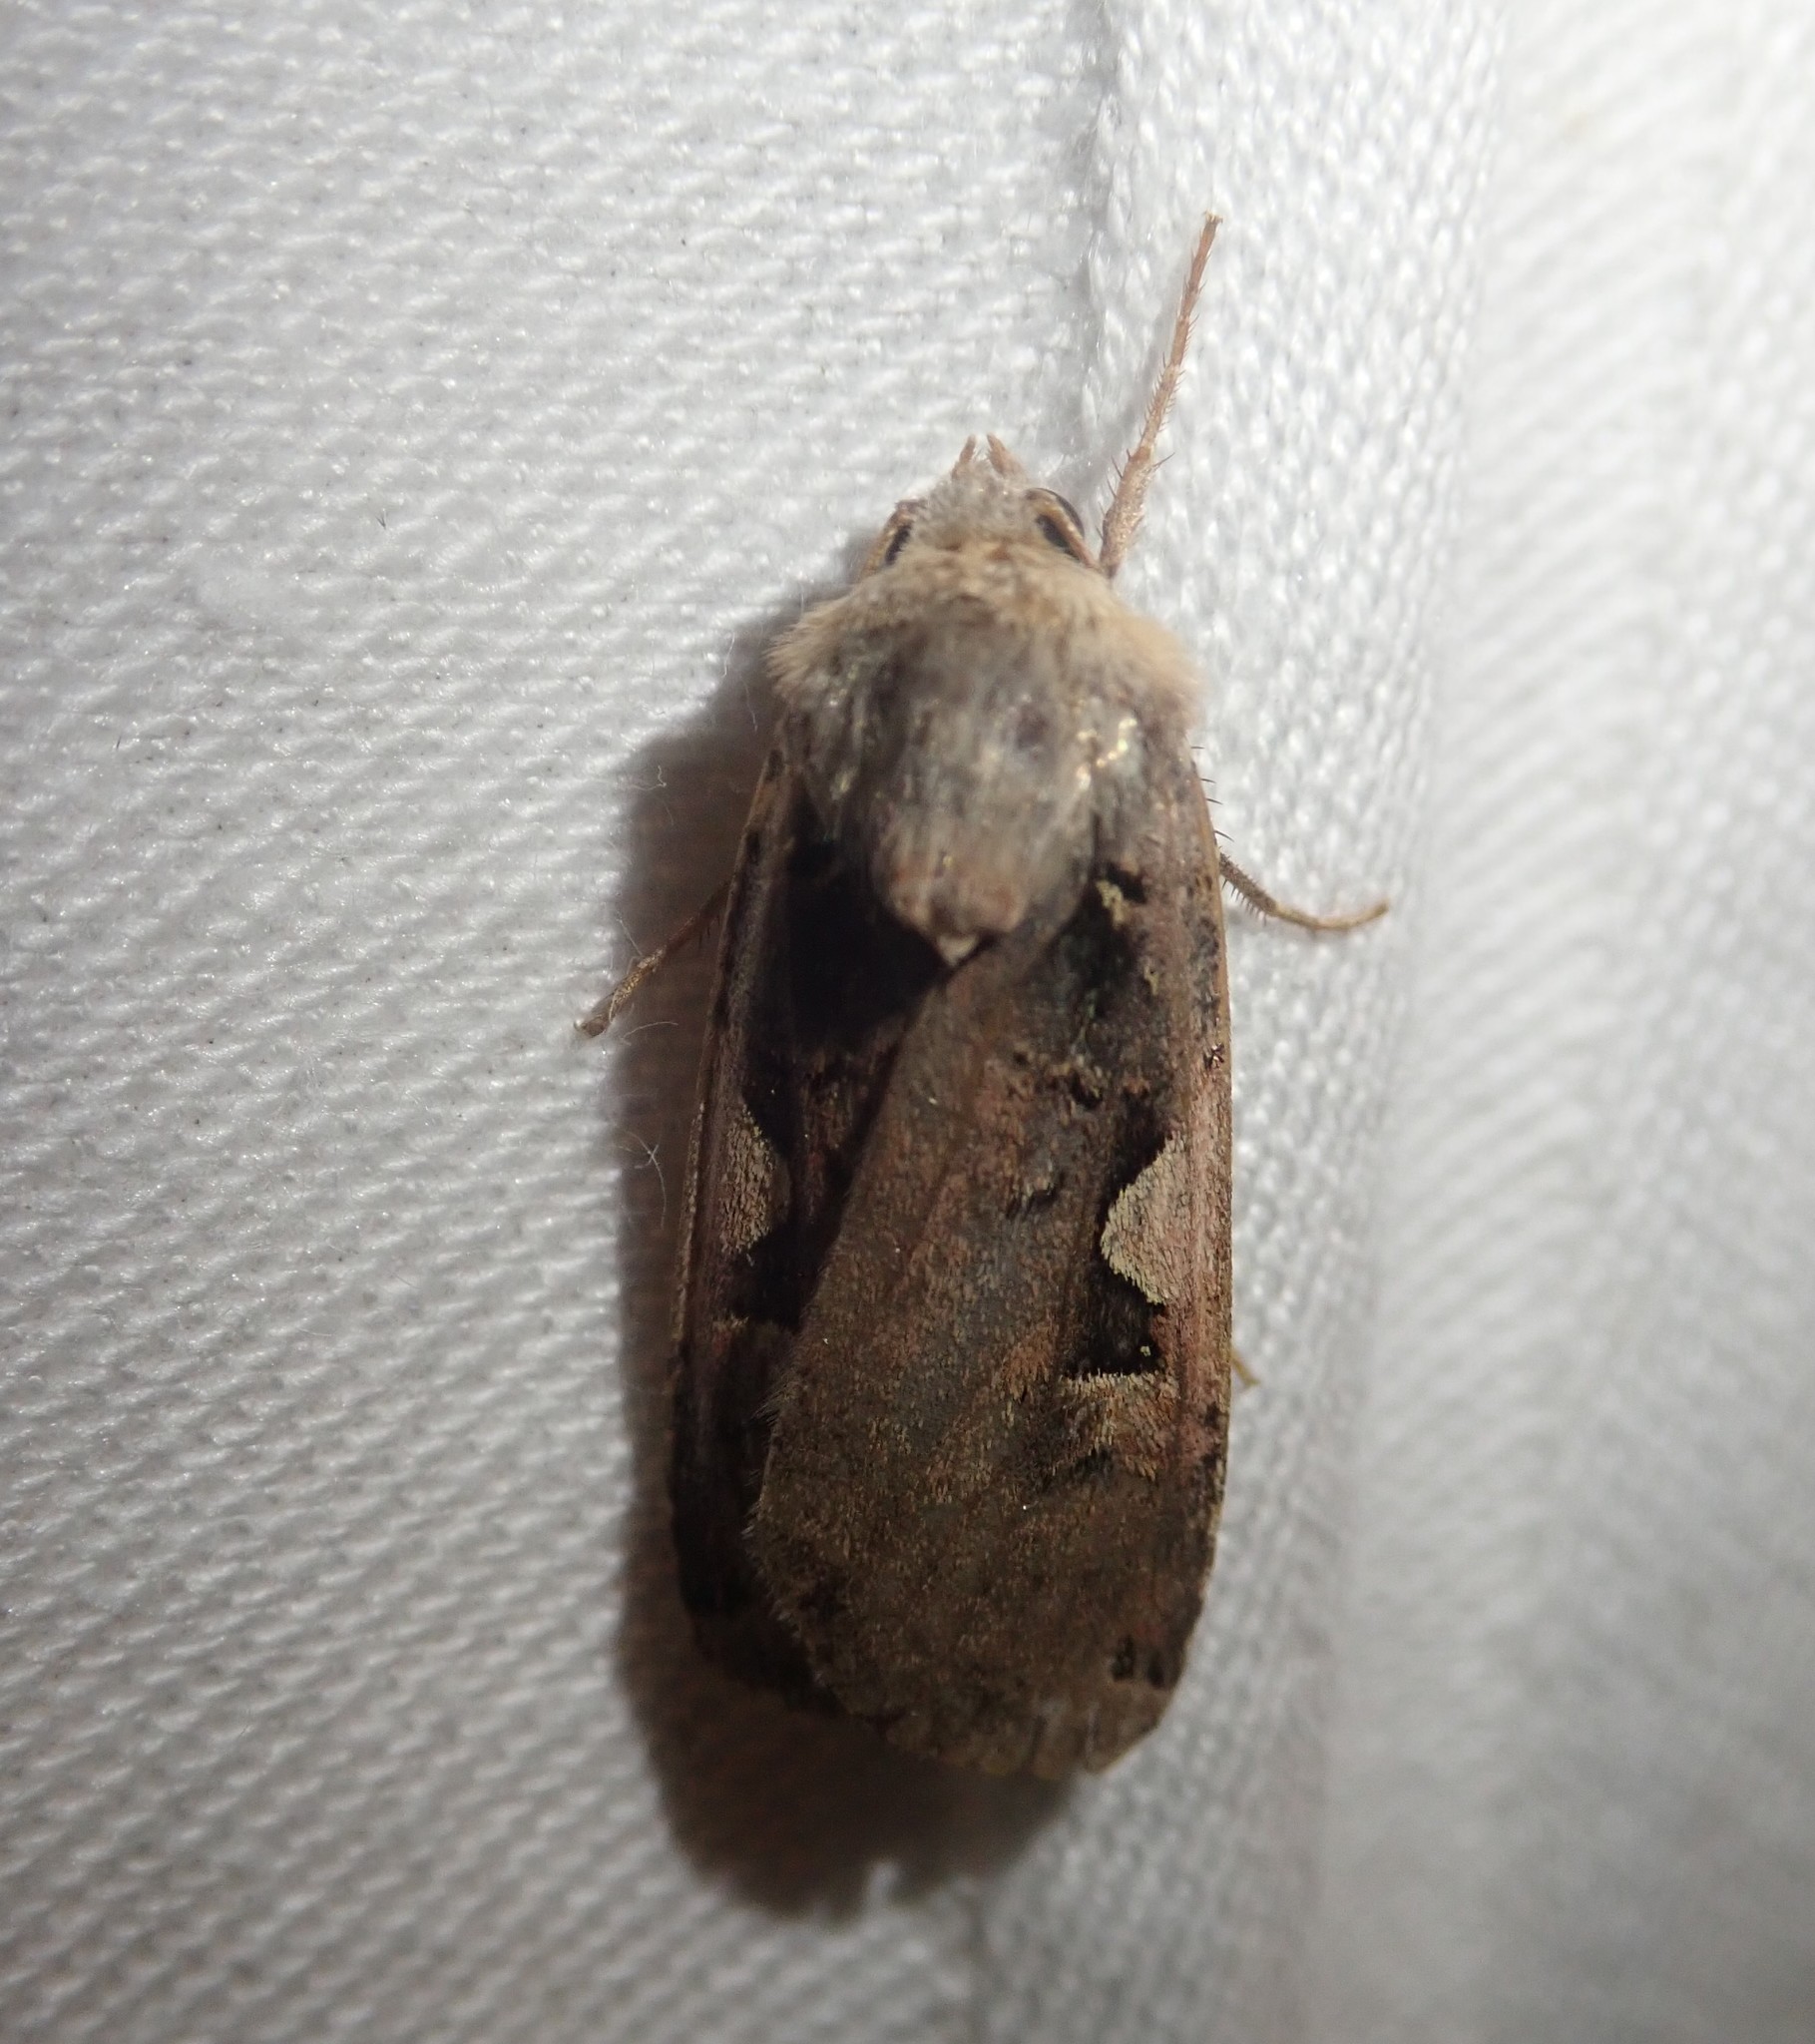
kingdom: Animalia
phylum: Arthropoda
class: Insecta
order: Lepidoptera
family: Noctuidae
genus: Xestia
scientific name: Xestia c-nigrum
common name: Setaceous hebrew character
